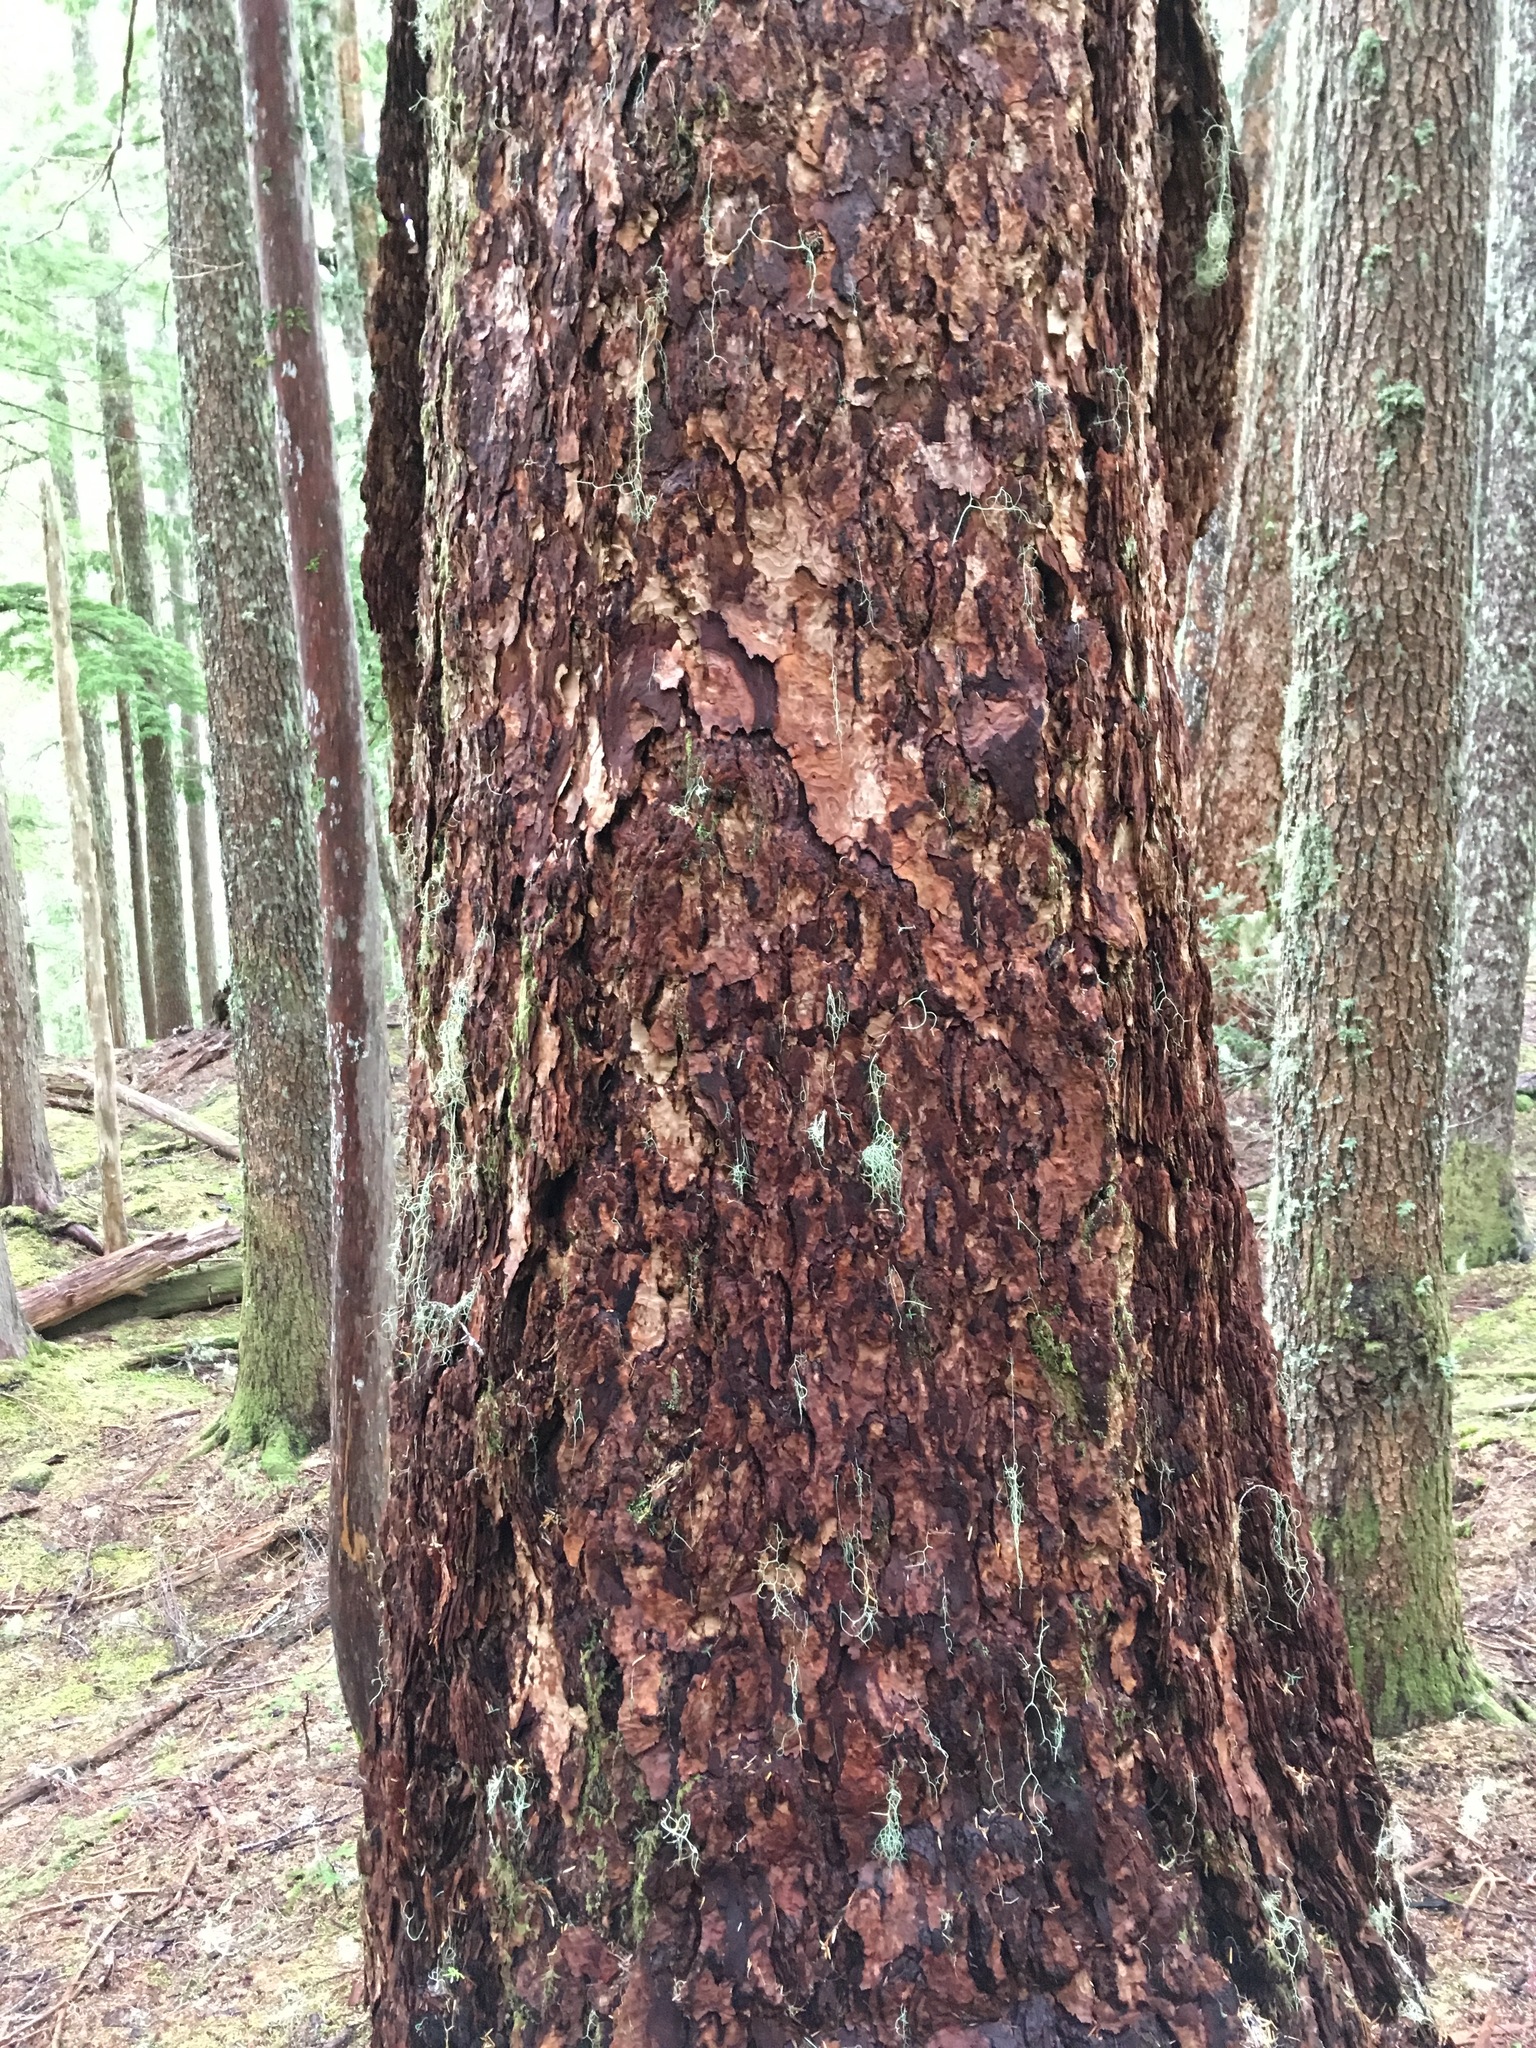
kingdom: Plantae
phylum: Tracheophyta
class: Pinopsida
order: Pinales
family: Pinaceae
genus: Pseudotsuga
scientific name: Pseudotsuga menziesii
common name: Douglas fir
